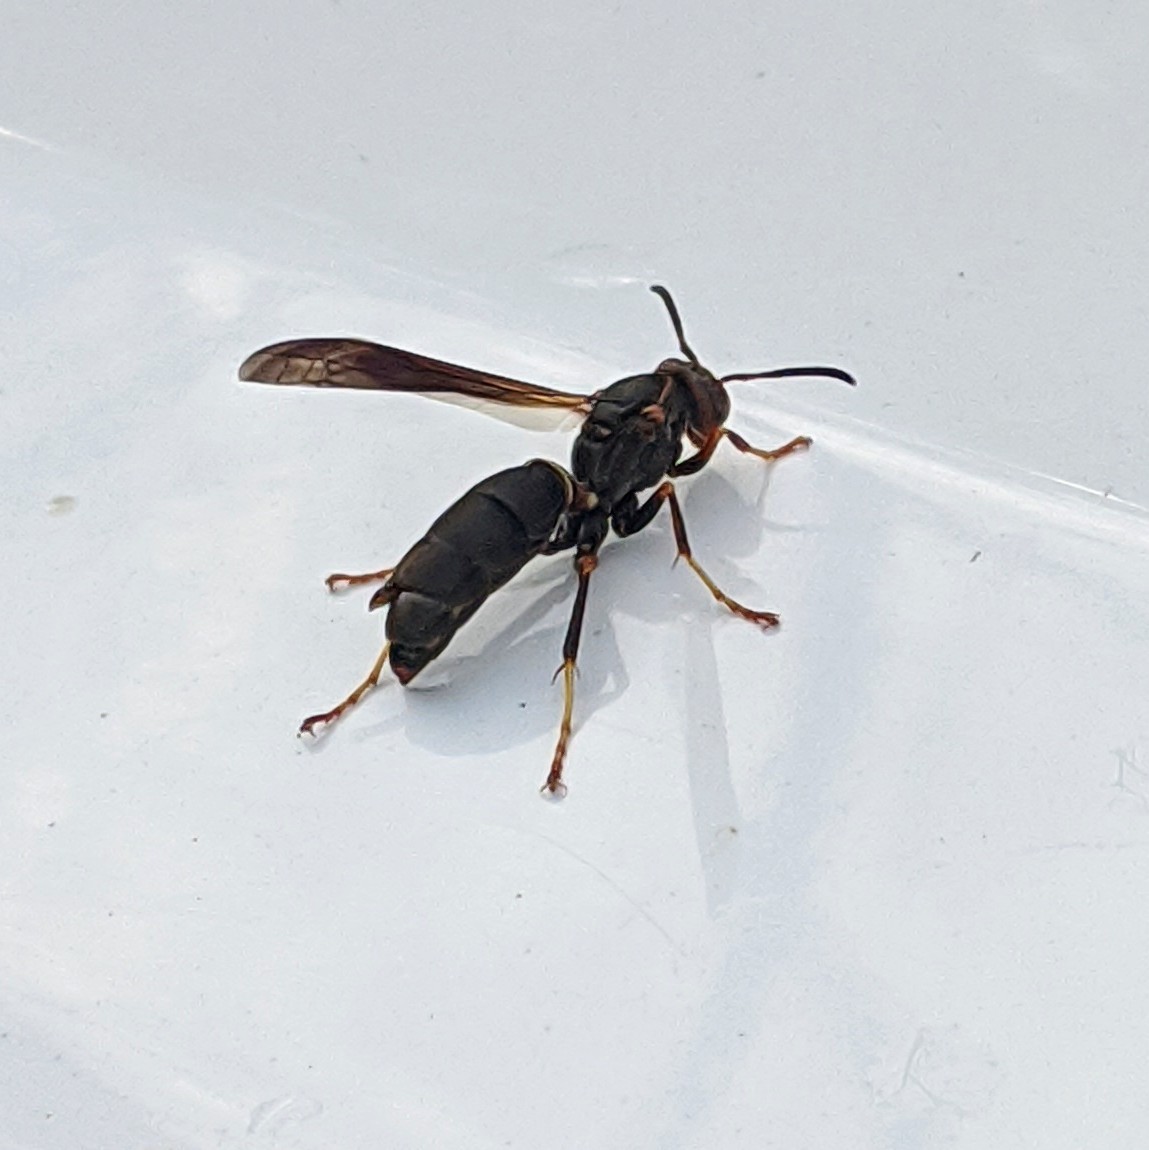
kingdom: Animalia
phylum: Arthropoda
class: Insecta
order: Hymenoptera
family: Eumenidae
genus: Polistes
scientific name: Polistes fuscatus
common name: Dark paper wasp
